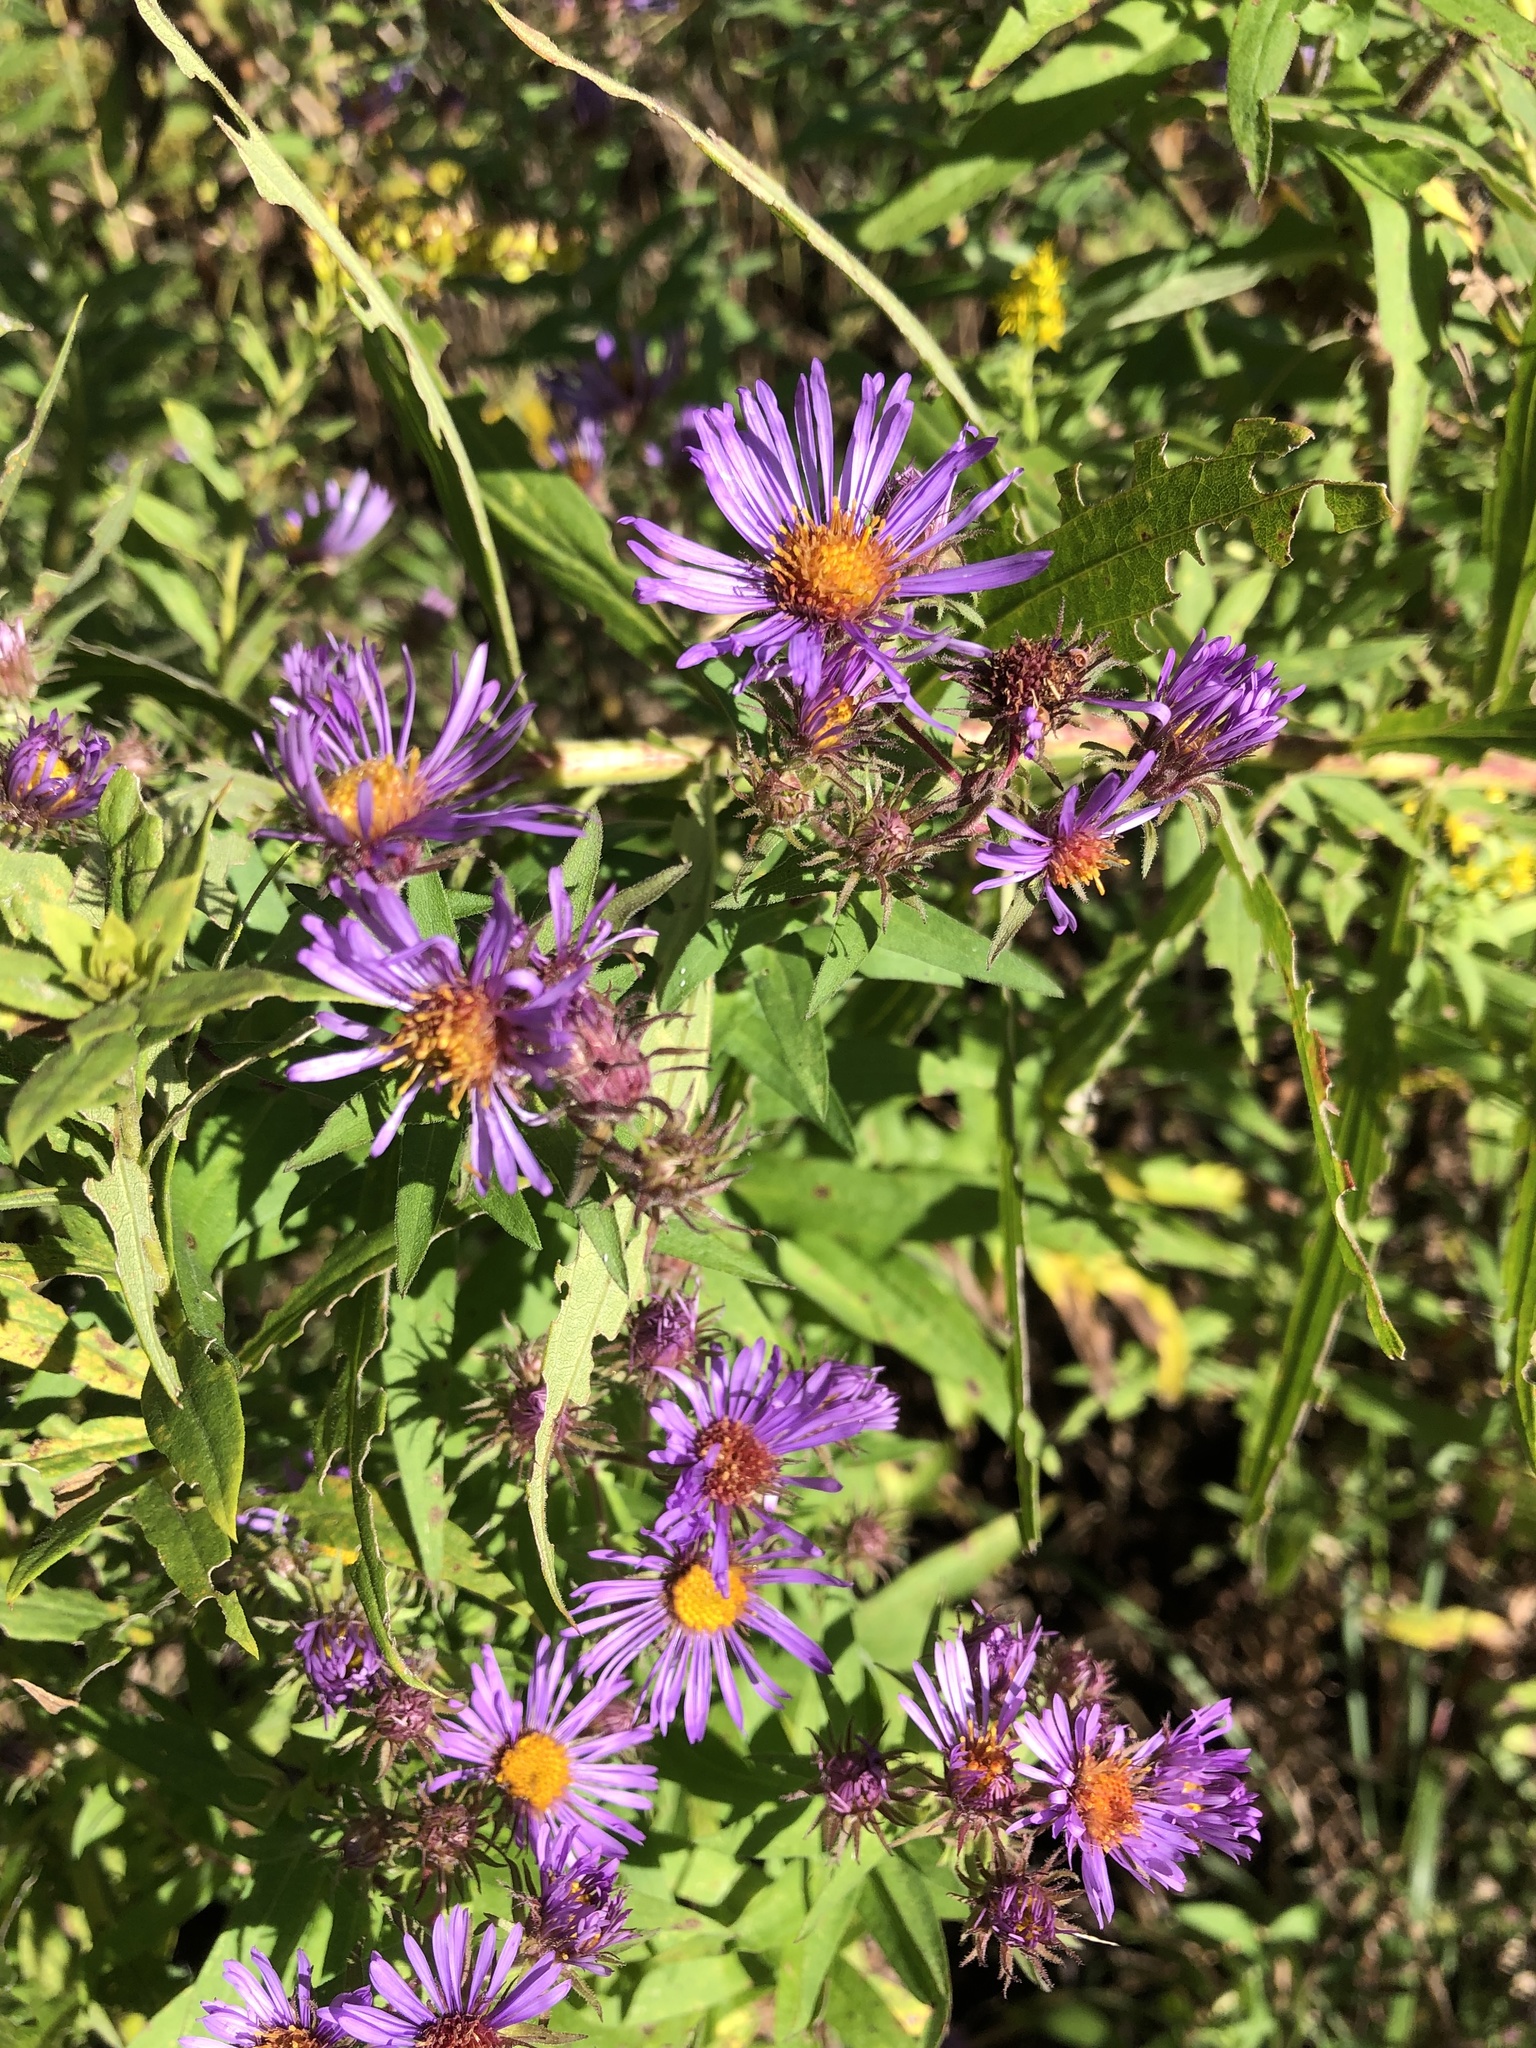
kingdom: Plantae
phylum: Tracheophyta
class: Magnoliopsida
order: Asterales
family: Asteraceae
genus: Symphyotrichum
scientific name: Symphyotrichum novae-angliae
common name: Michaelmas daisy
